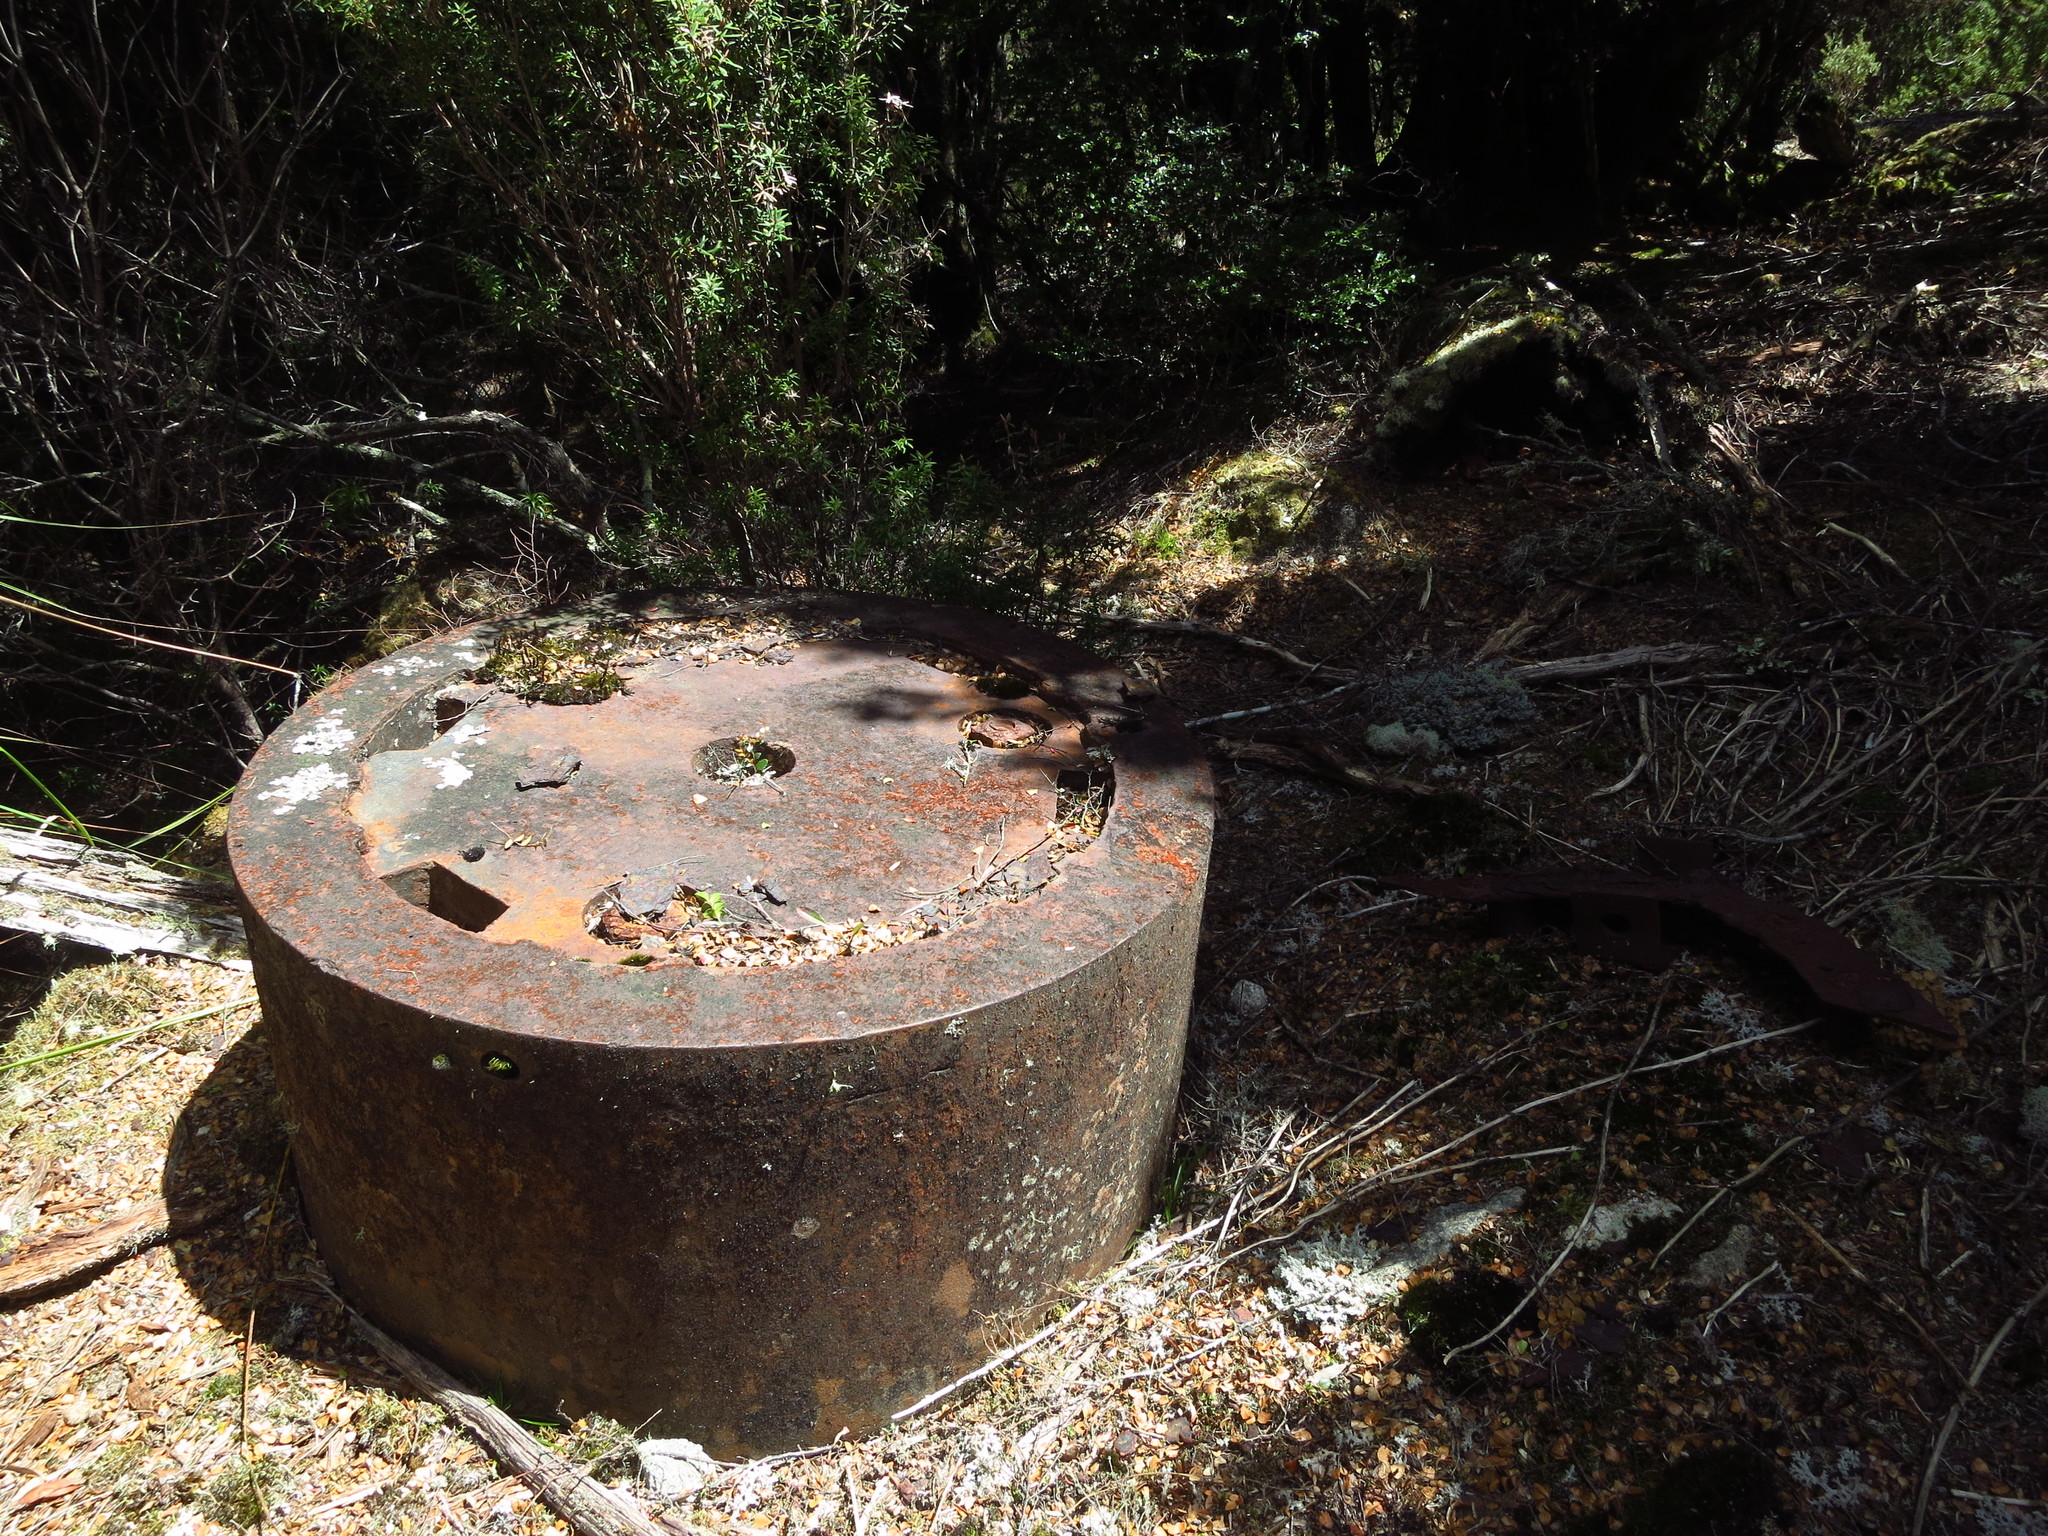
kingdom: Plantae
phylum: Tracheophyta
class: Magnoliopsida
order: Fagales
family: Nothofagaceae
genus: Nothofagus
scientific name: Nothofagus cunninghamii
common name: Myrtle beech
